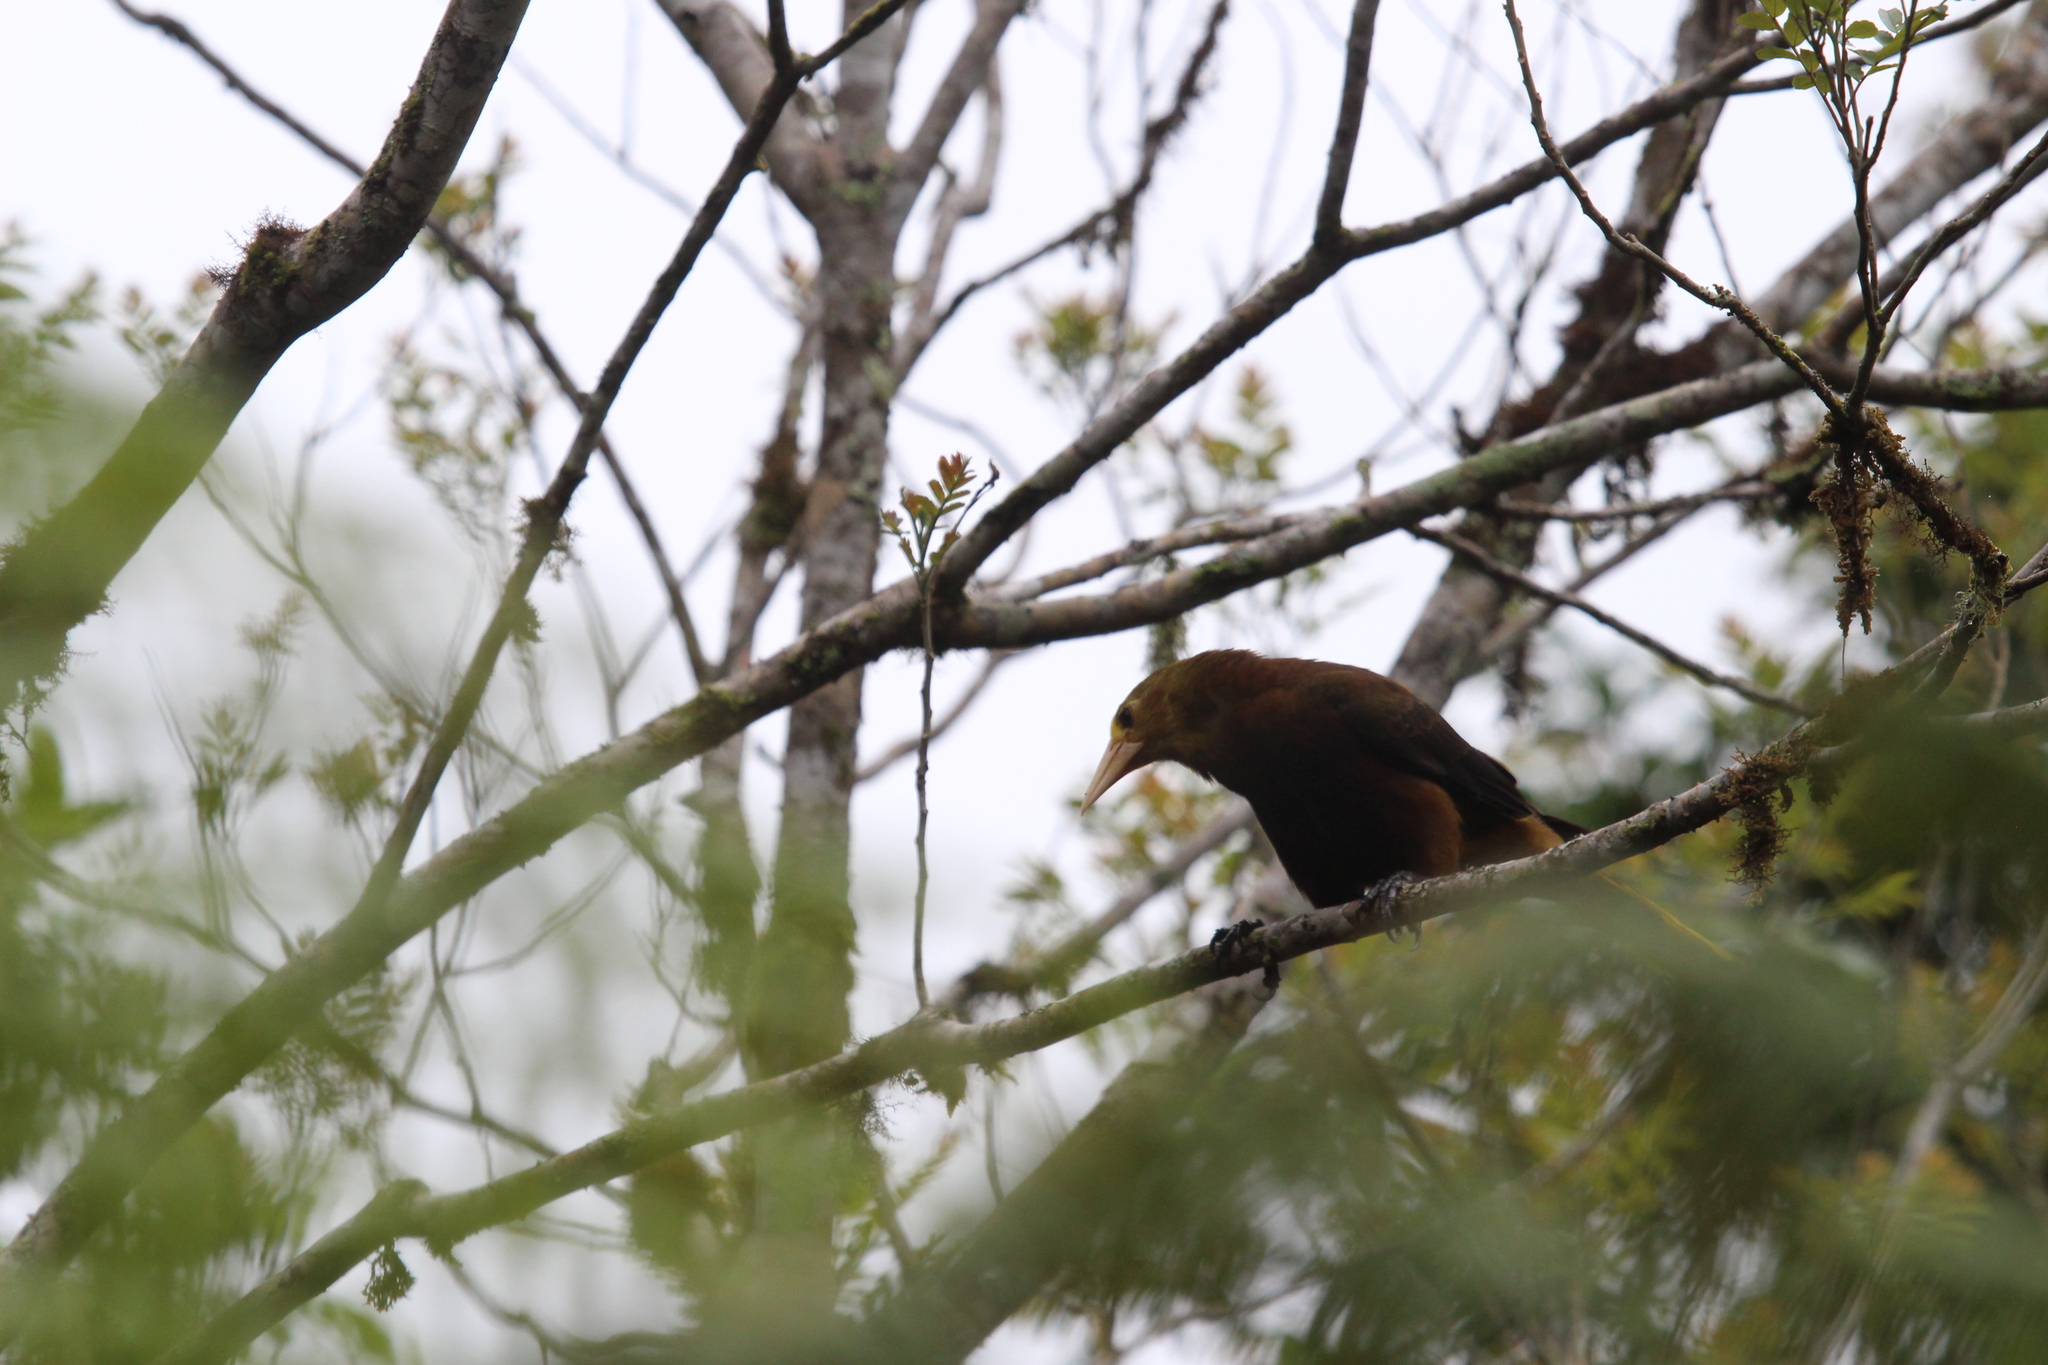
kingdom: Animalia
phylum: Chordata
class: Aves
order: Passeriformes
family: Icteridae
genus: Psarocolius
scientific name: Psarocolius angustifrons
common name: Russet-backed oropendola
